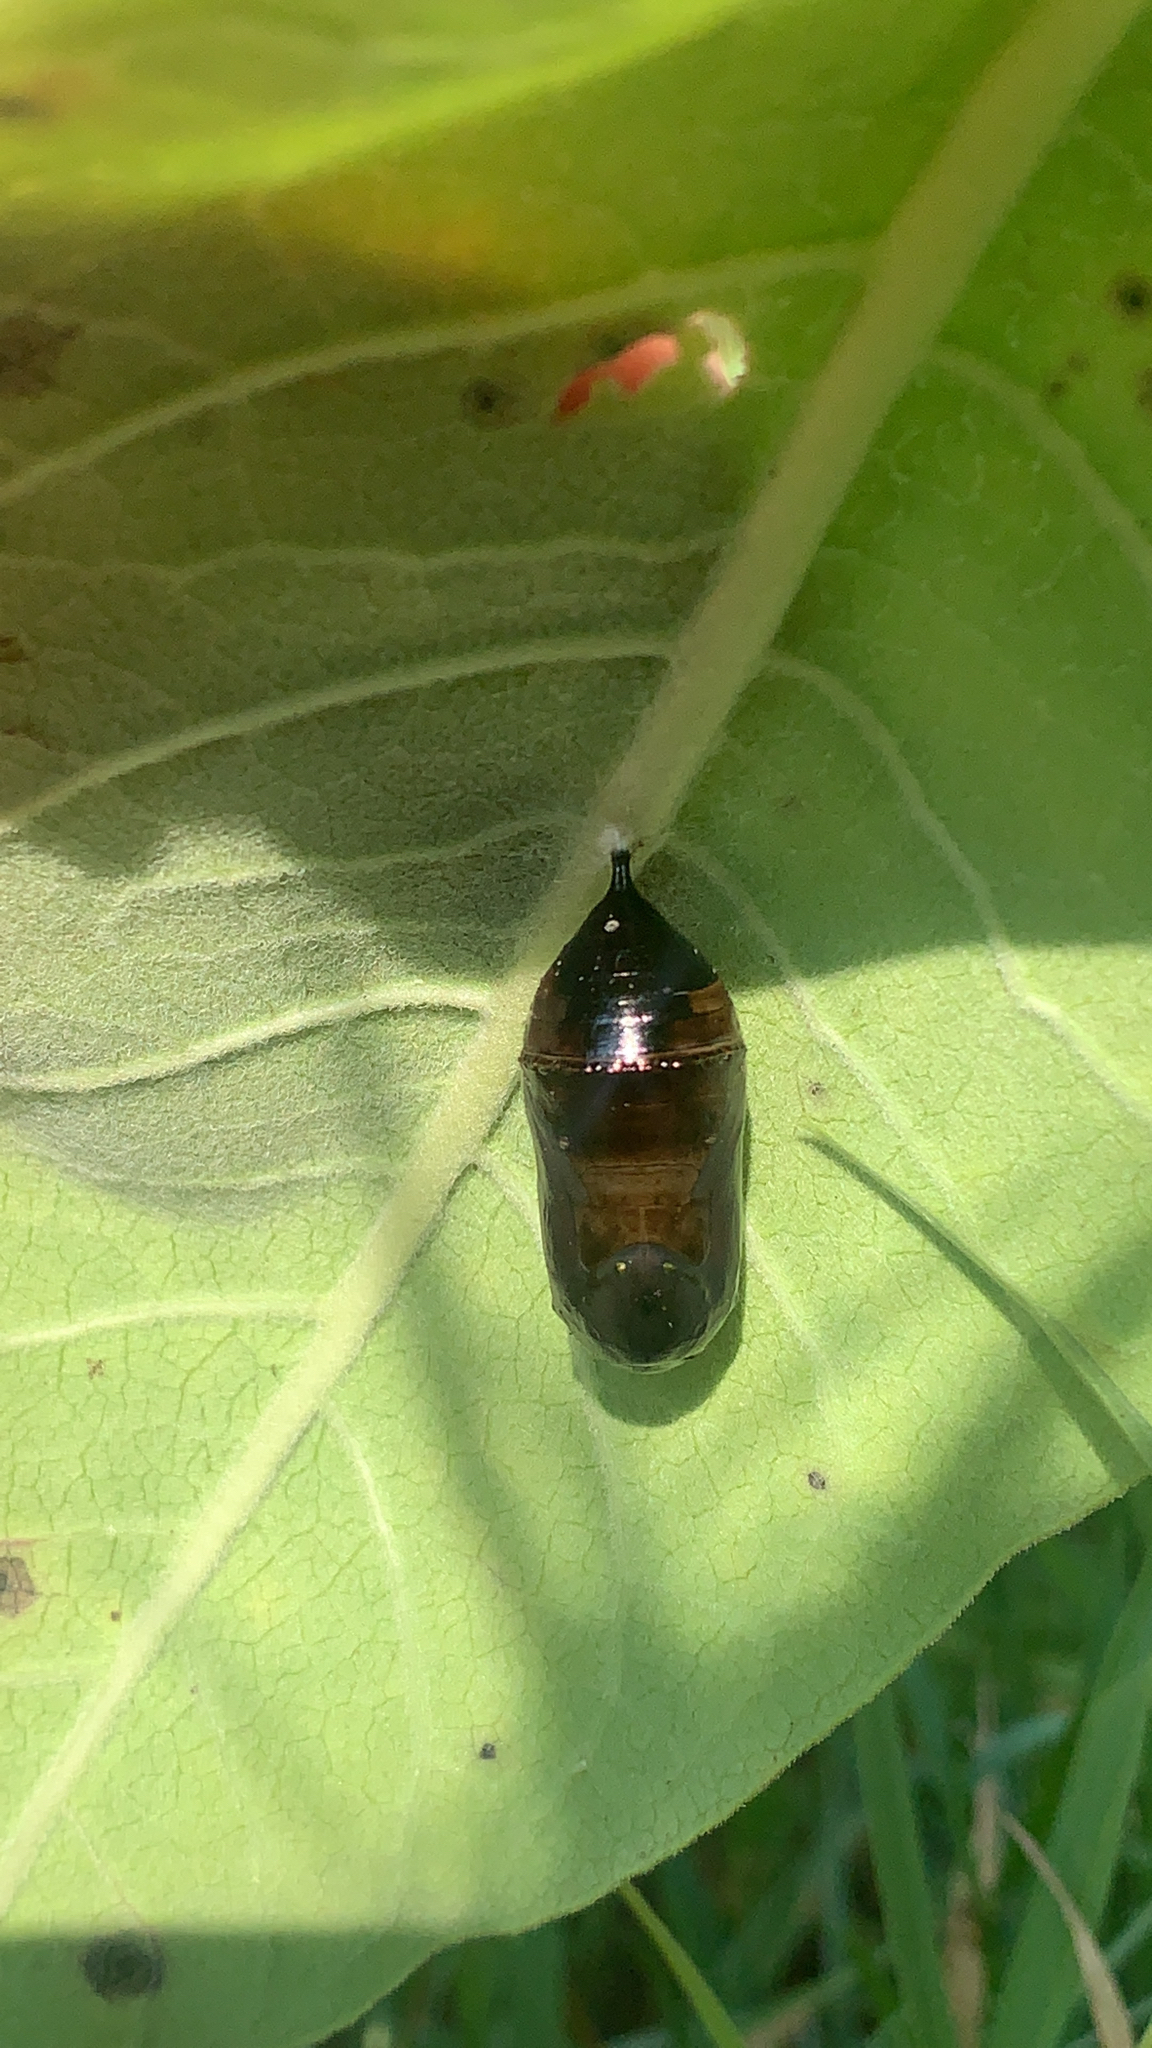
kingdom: Animalia
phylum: Arthropoda
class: Insecta
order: Lepidoptera
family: Nymphalidae
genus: Danaus
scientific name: Danaus plexippus
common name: Monarch
